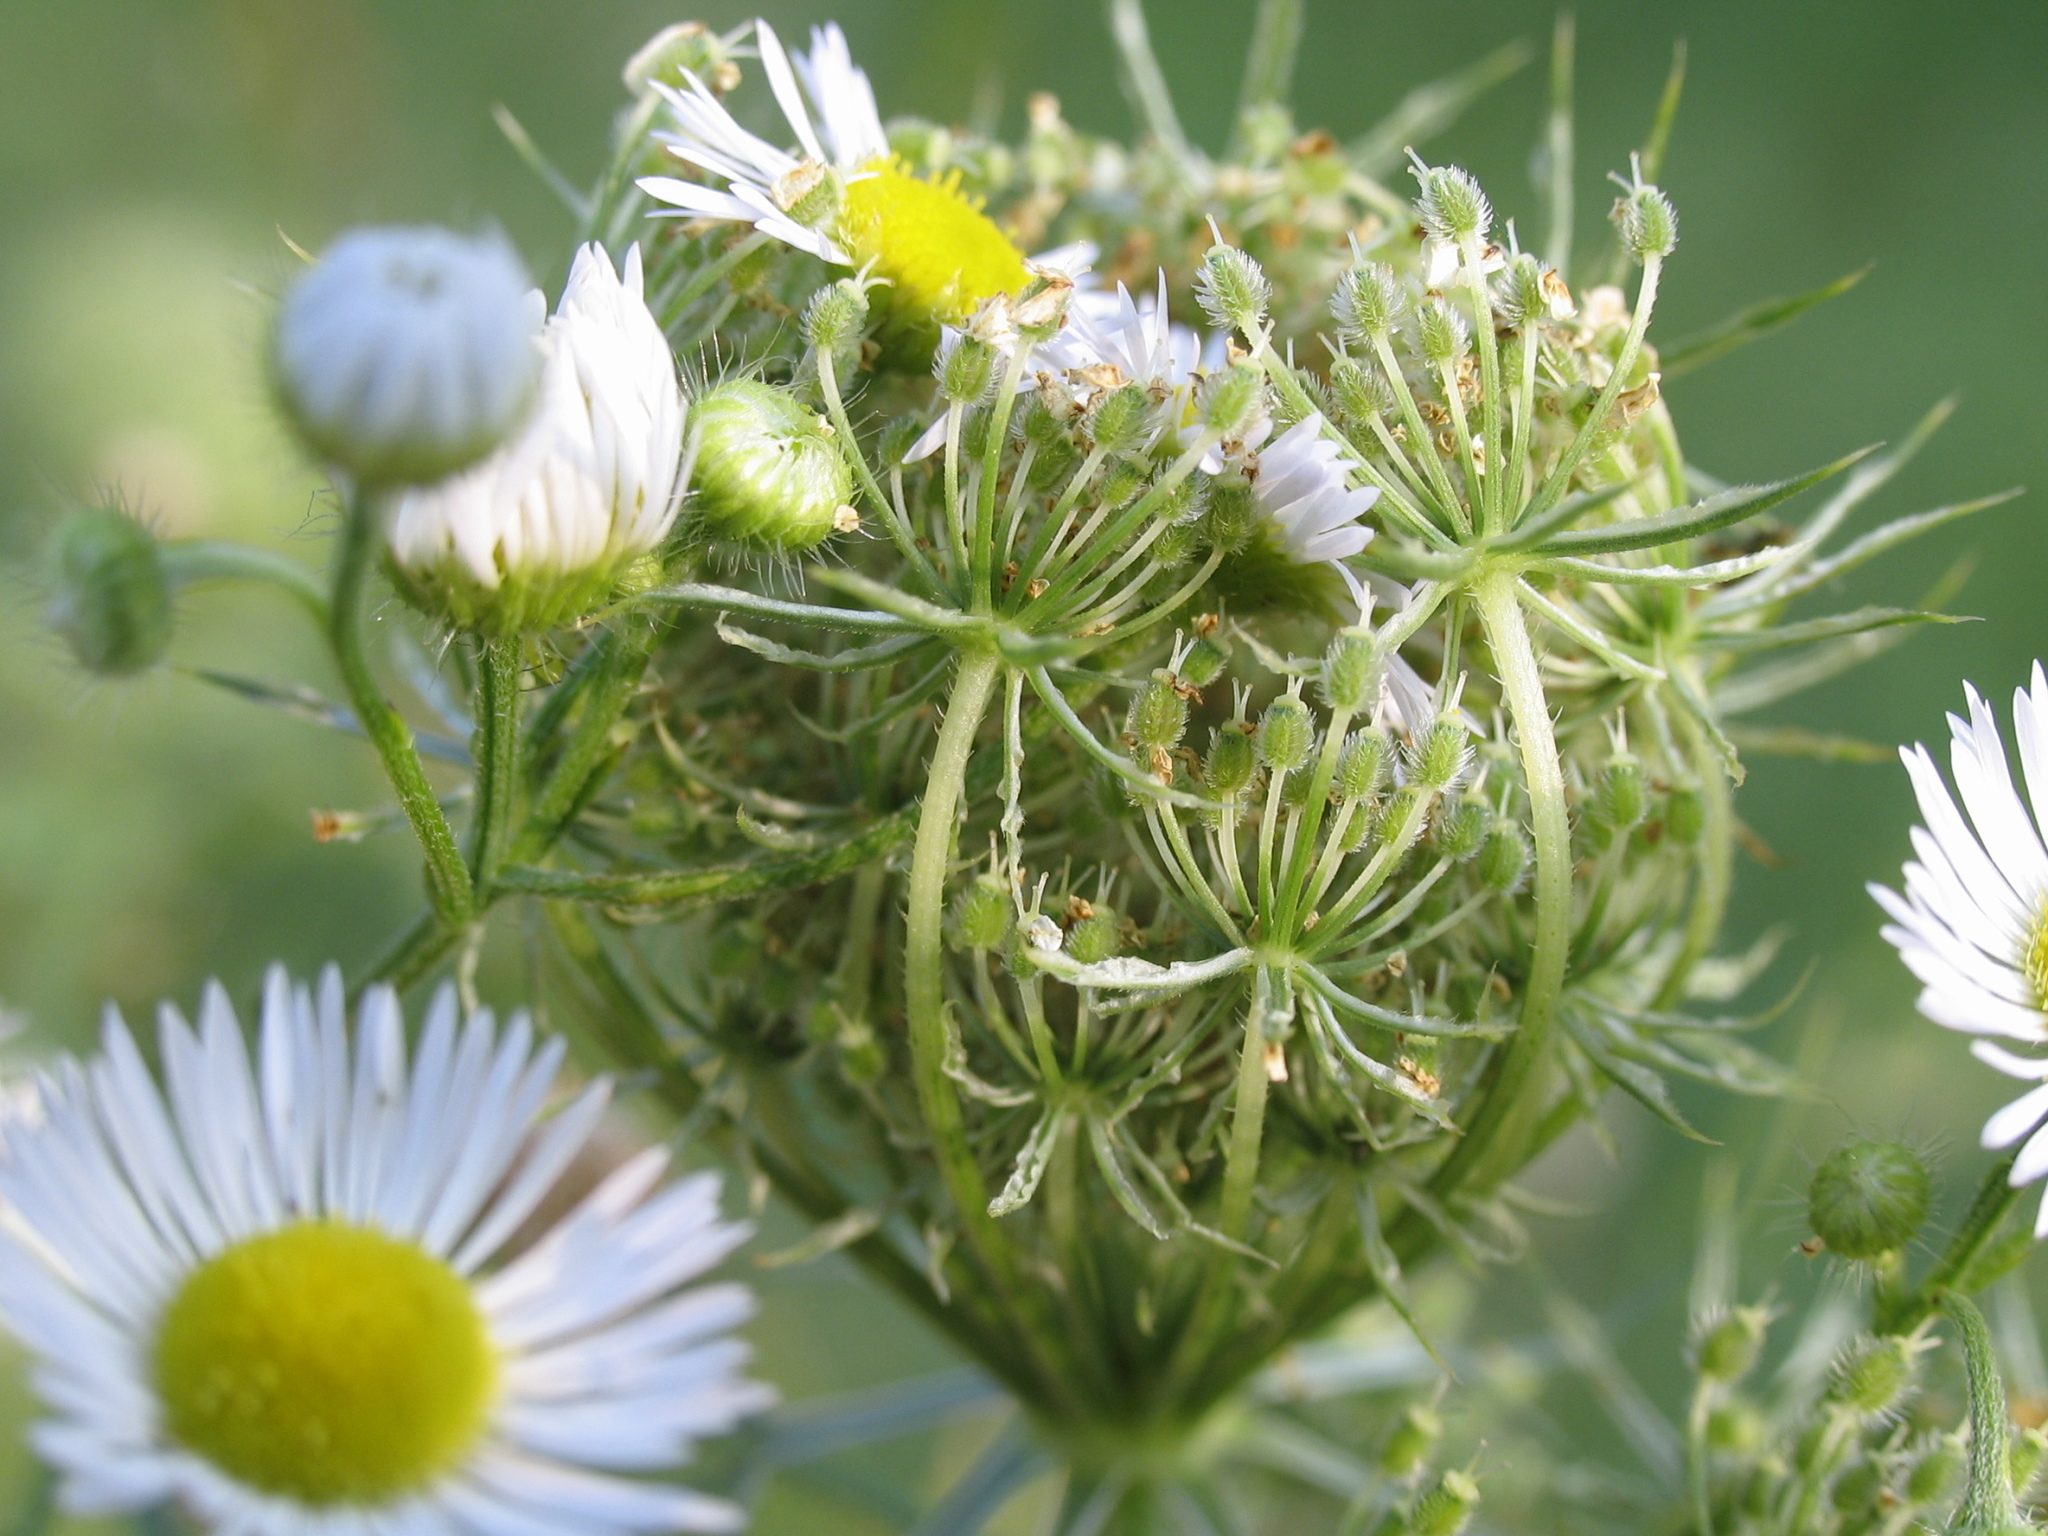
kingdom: Plantae
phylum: Tracheophyta
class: Magnoliopsida
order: Apiales
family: Apiaceae
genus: Daucus
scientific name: Daucus carota
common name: Wild carrot
